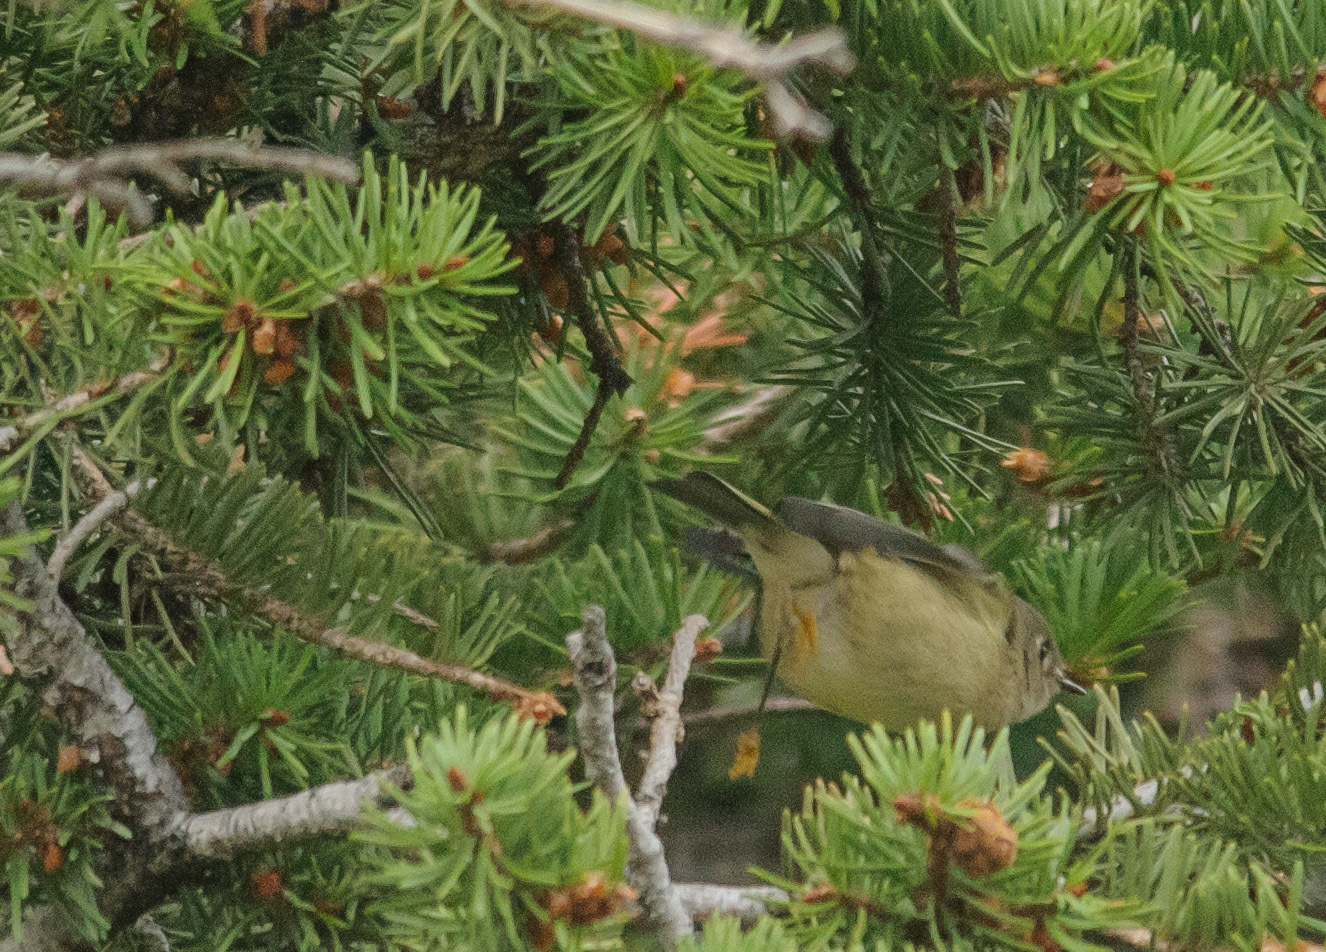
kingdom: Animalia
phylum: Chordata
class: Aves
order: Passeriformes
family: Regulidae
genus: Regulus
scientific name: Regulus calendula
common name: Ruby-crowned kinglet
